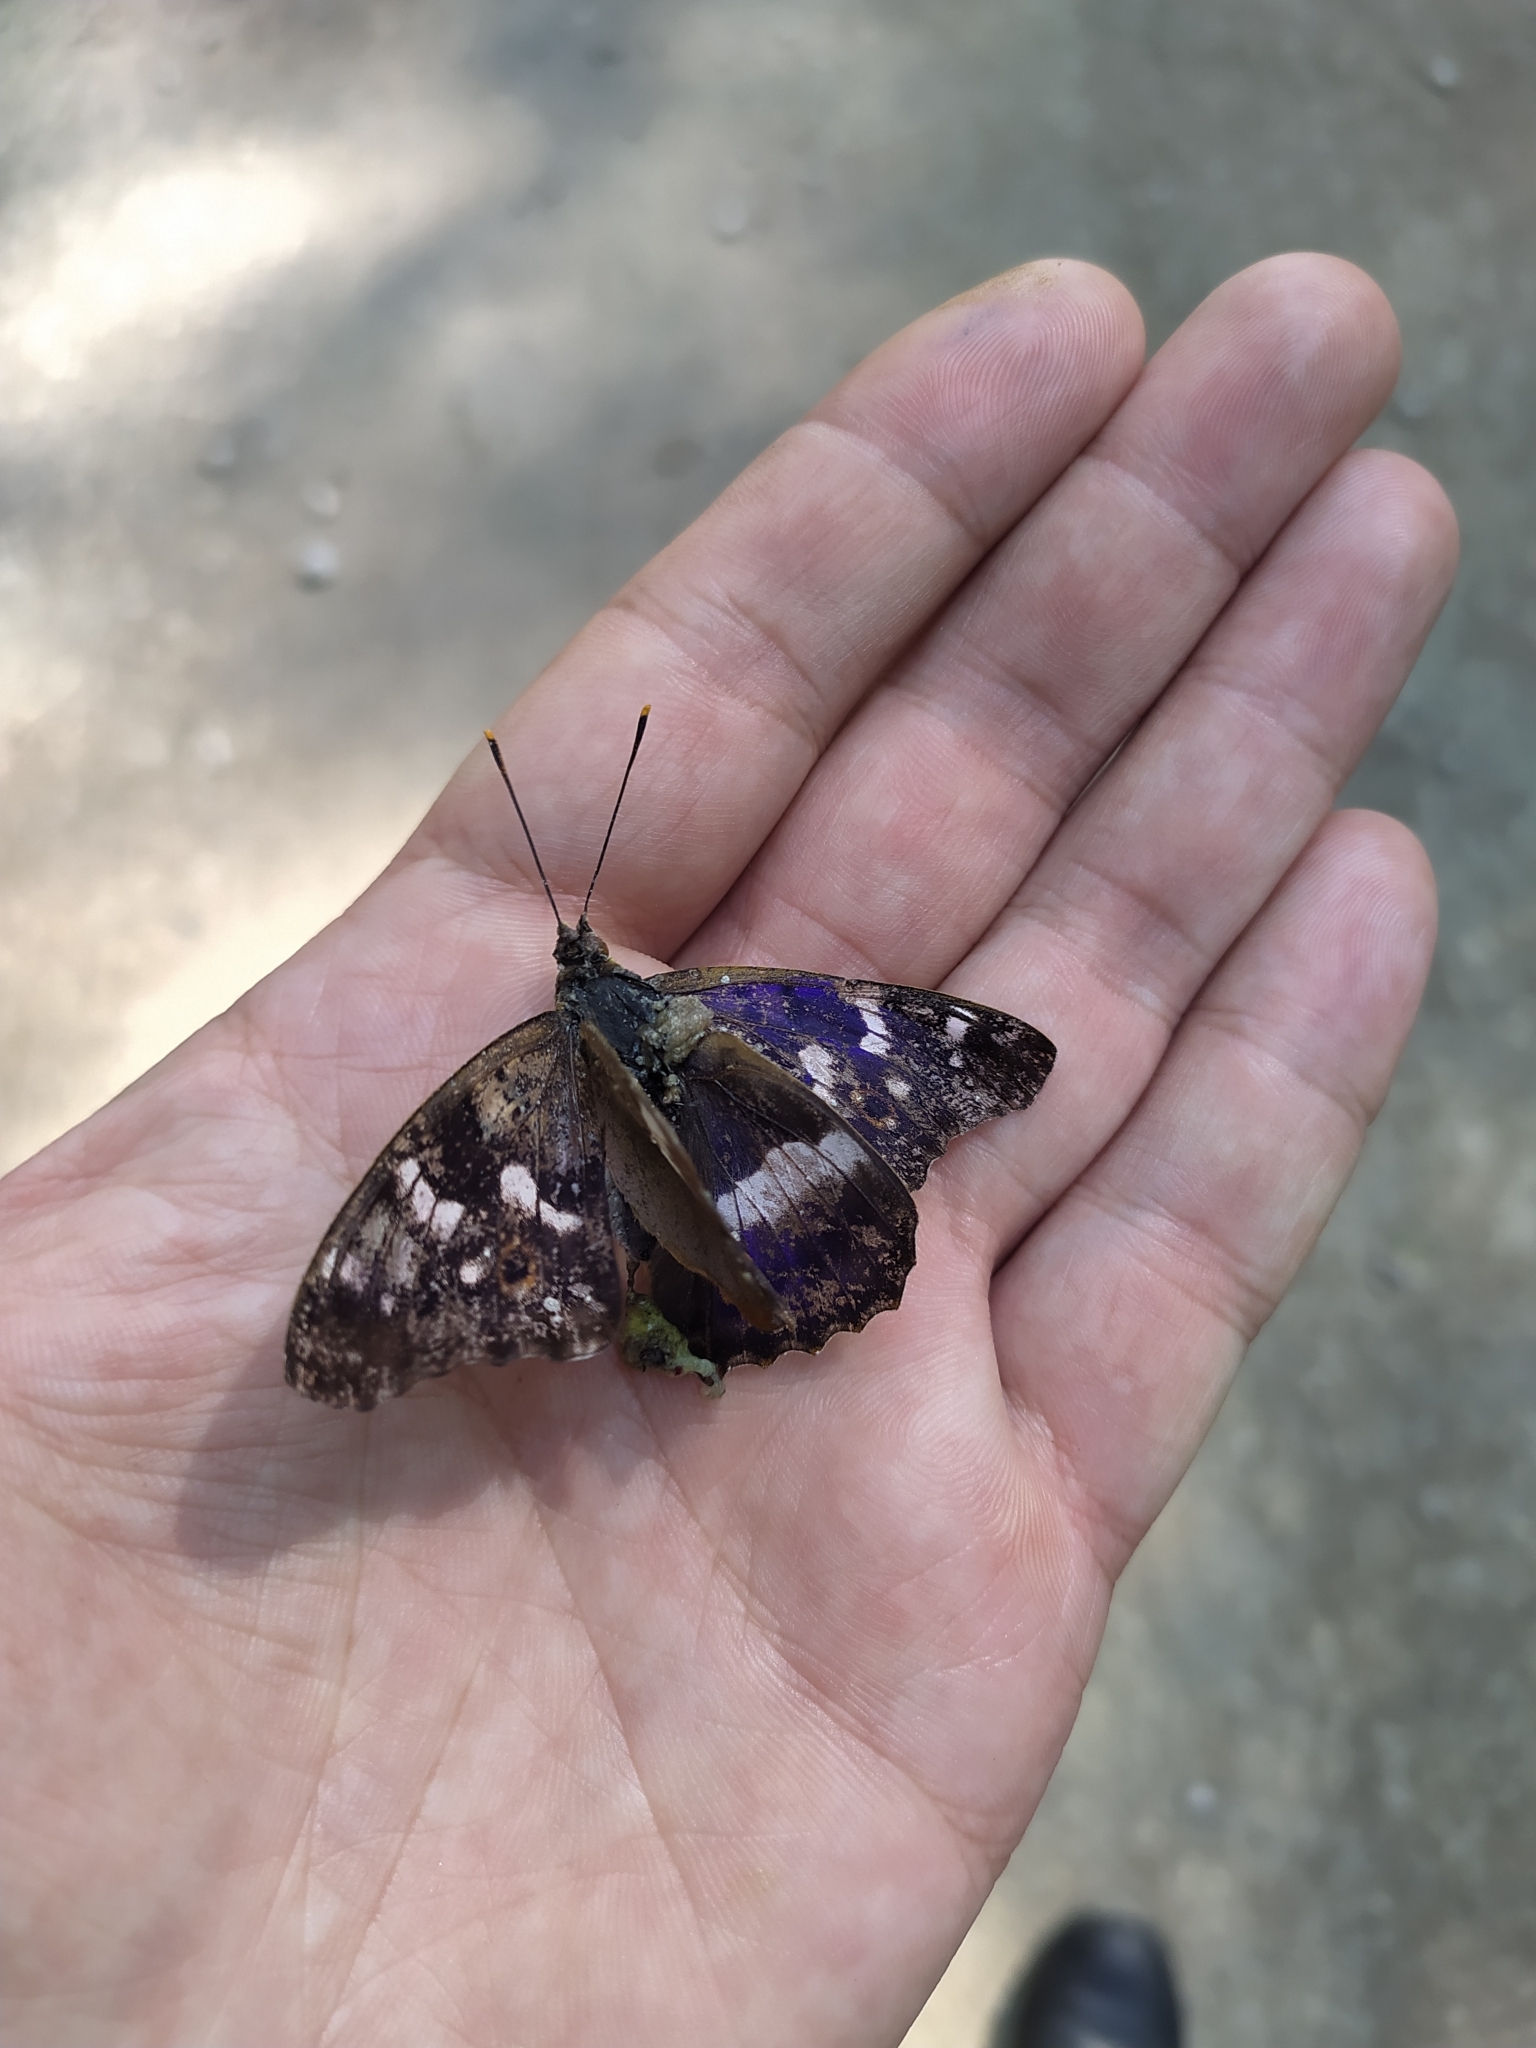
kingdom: Animalia
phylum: Arthropoda
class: Insecta
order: Lepidoptera
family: Nymphalidae
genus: Apatura
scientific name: Apatura ilia
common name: Lesser purple emperor
